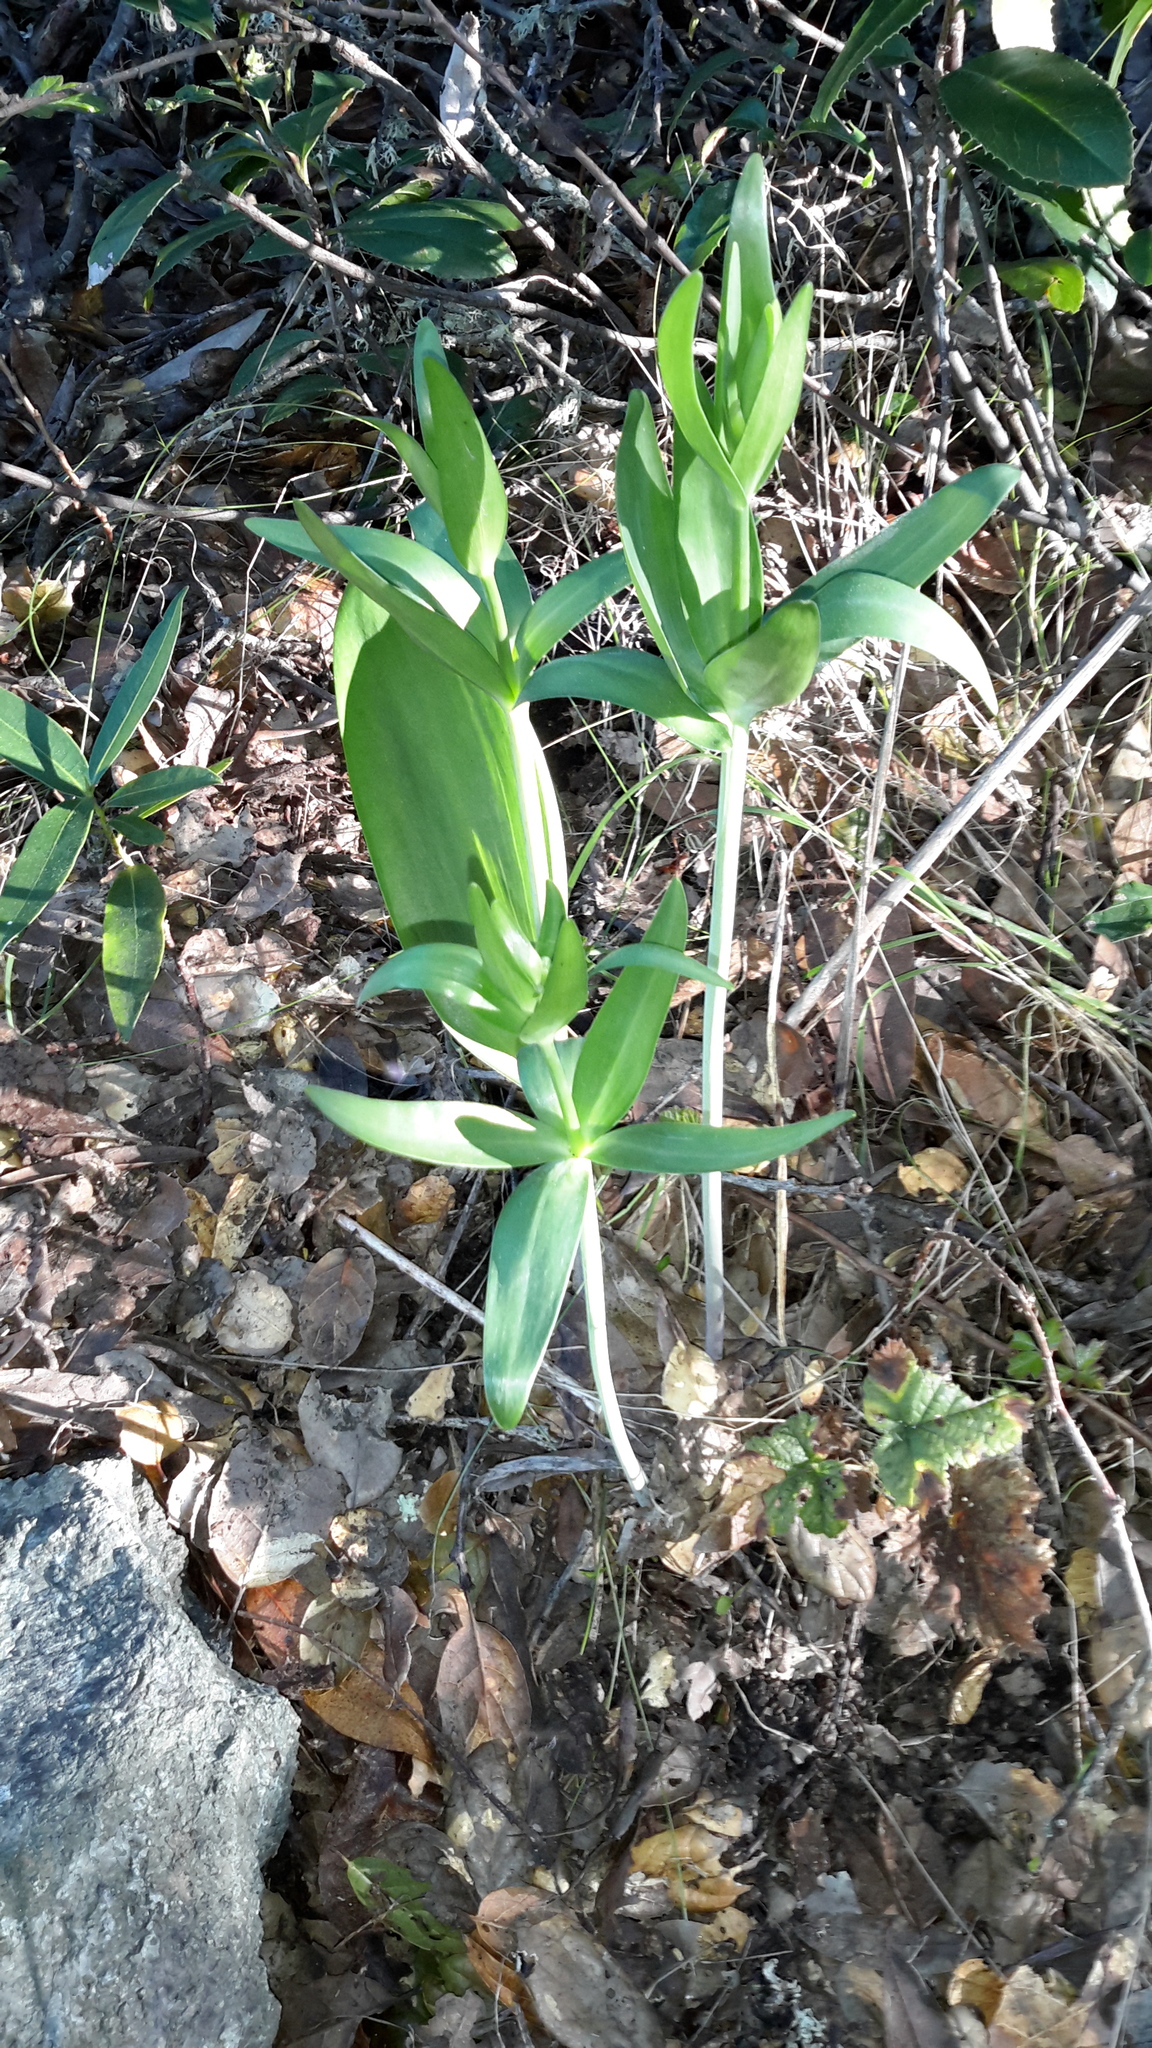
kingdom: Plantae
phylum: Tracheophyta
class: Liliopsida
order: Liliales
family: Liliaceae
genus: Fritillaria
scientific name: Fritillaria affinis
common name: Ojai fritillary
